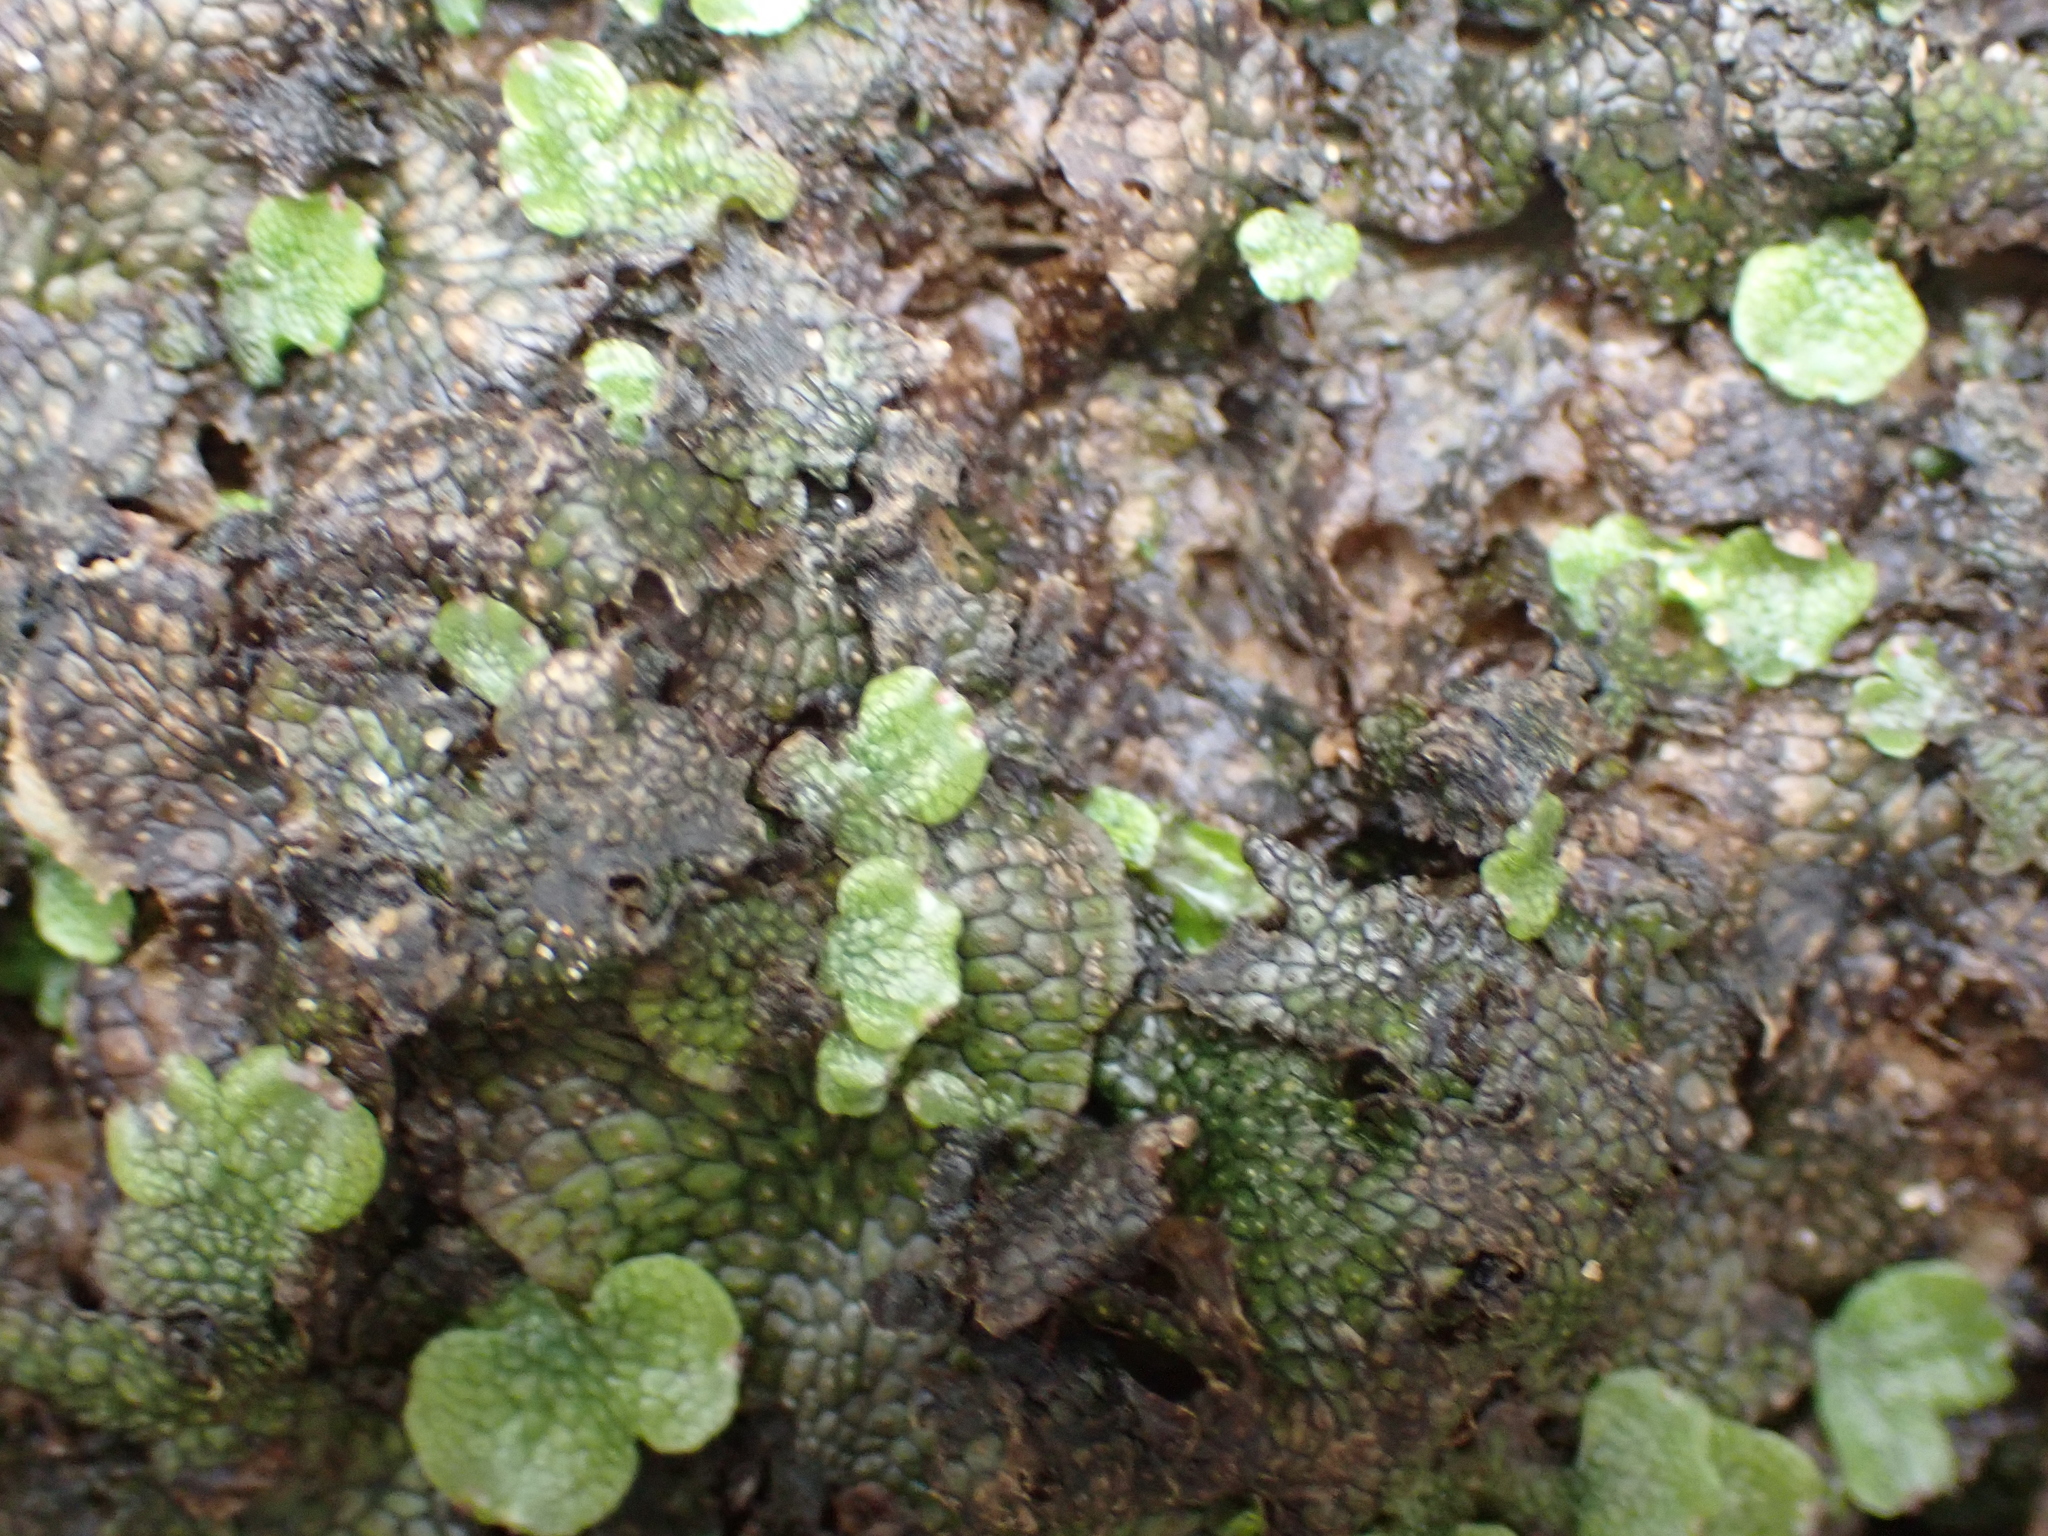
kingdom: Plantae
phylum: Marchantiophyta
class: Marchantiopsida
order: Marchantiales
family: Conocephalaceae
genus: Conocephalum
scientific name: Conocephalum salebrosum
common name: Cat-tongue liverwort
